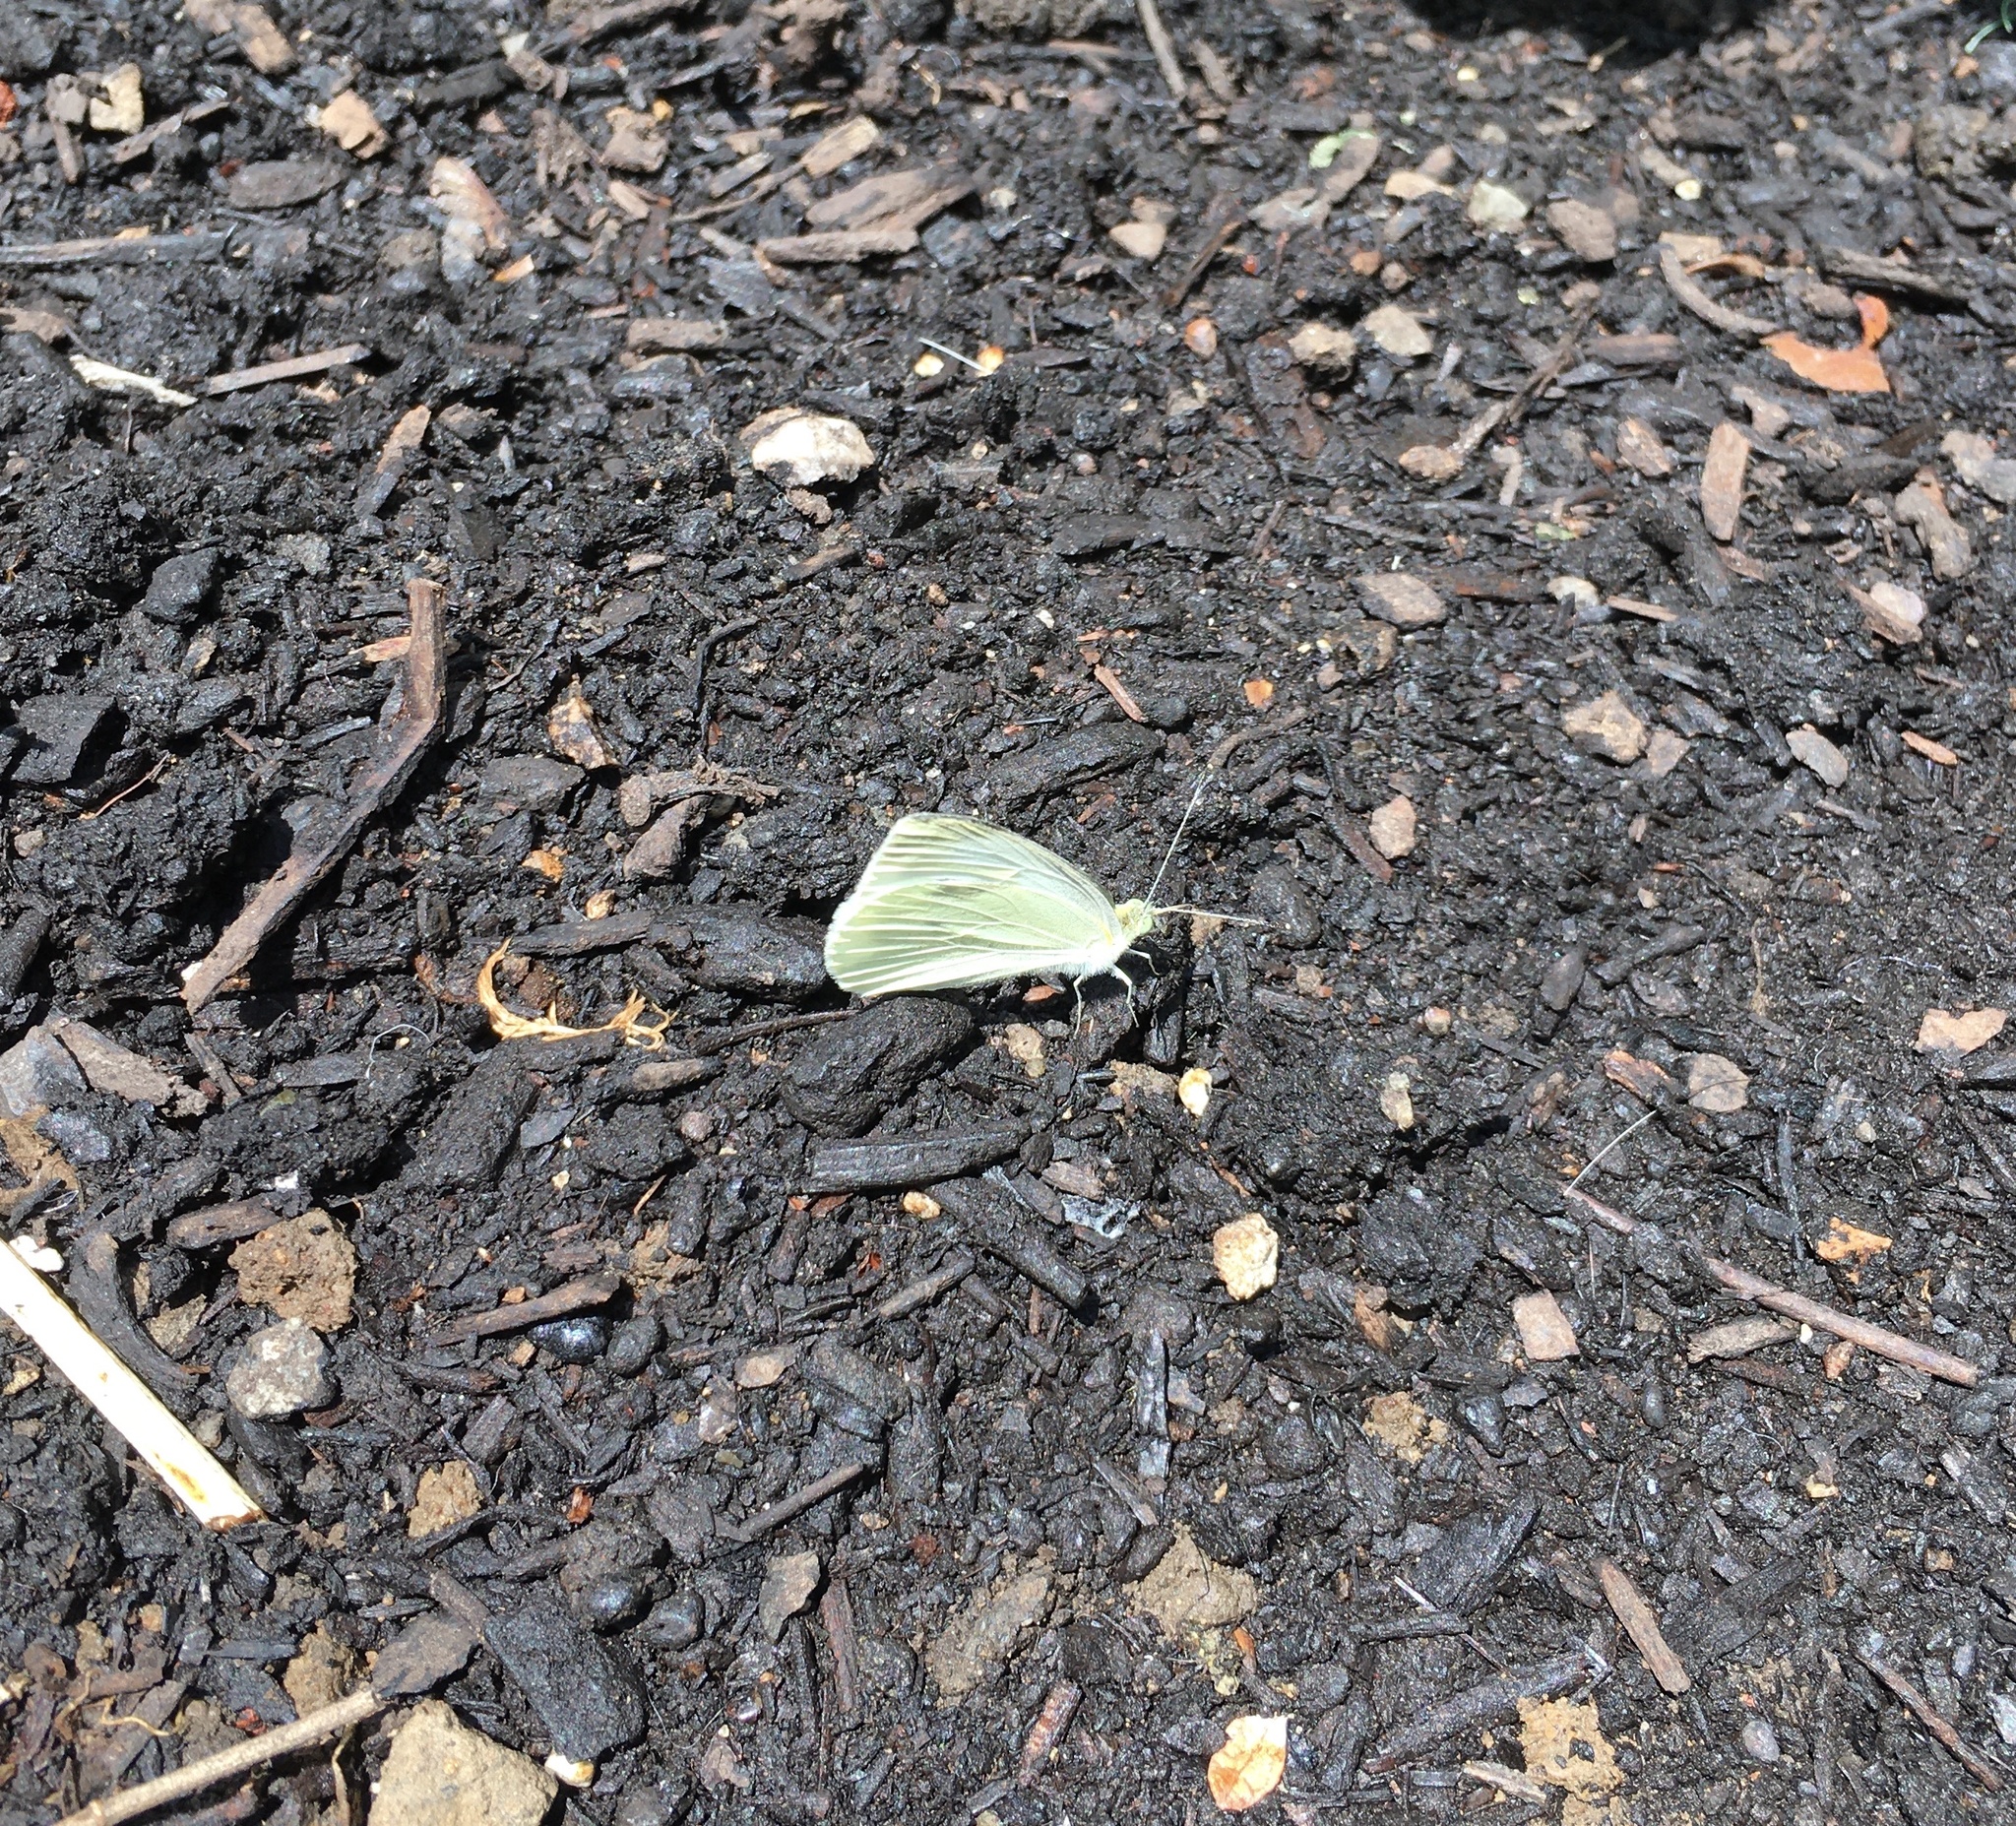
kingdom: Animalia
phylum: Arthropoda
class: Insecta
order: Lepidoptera
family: Pieridae
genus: Pieris
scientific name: Pieris rapae
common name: Small white
